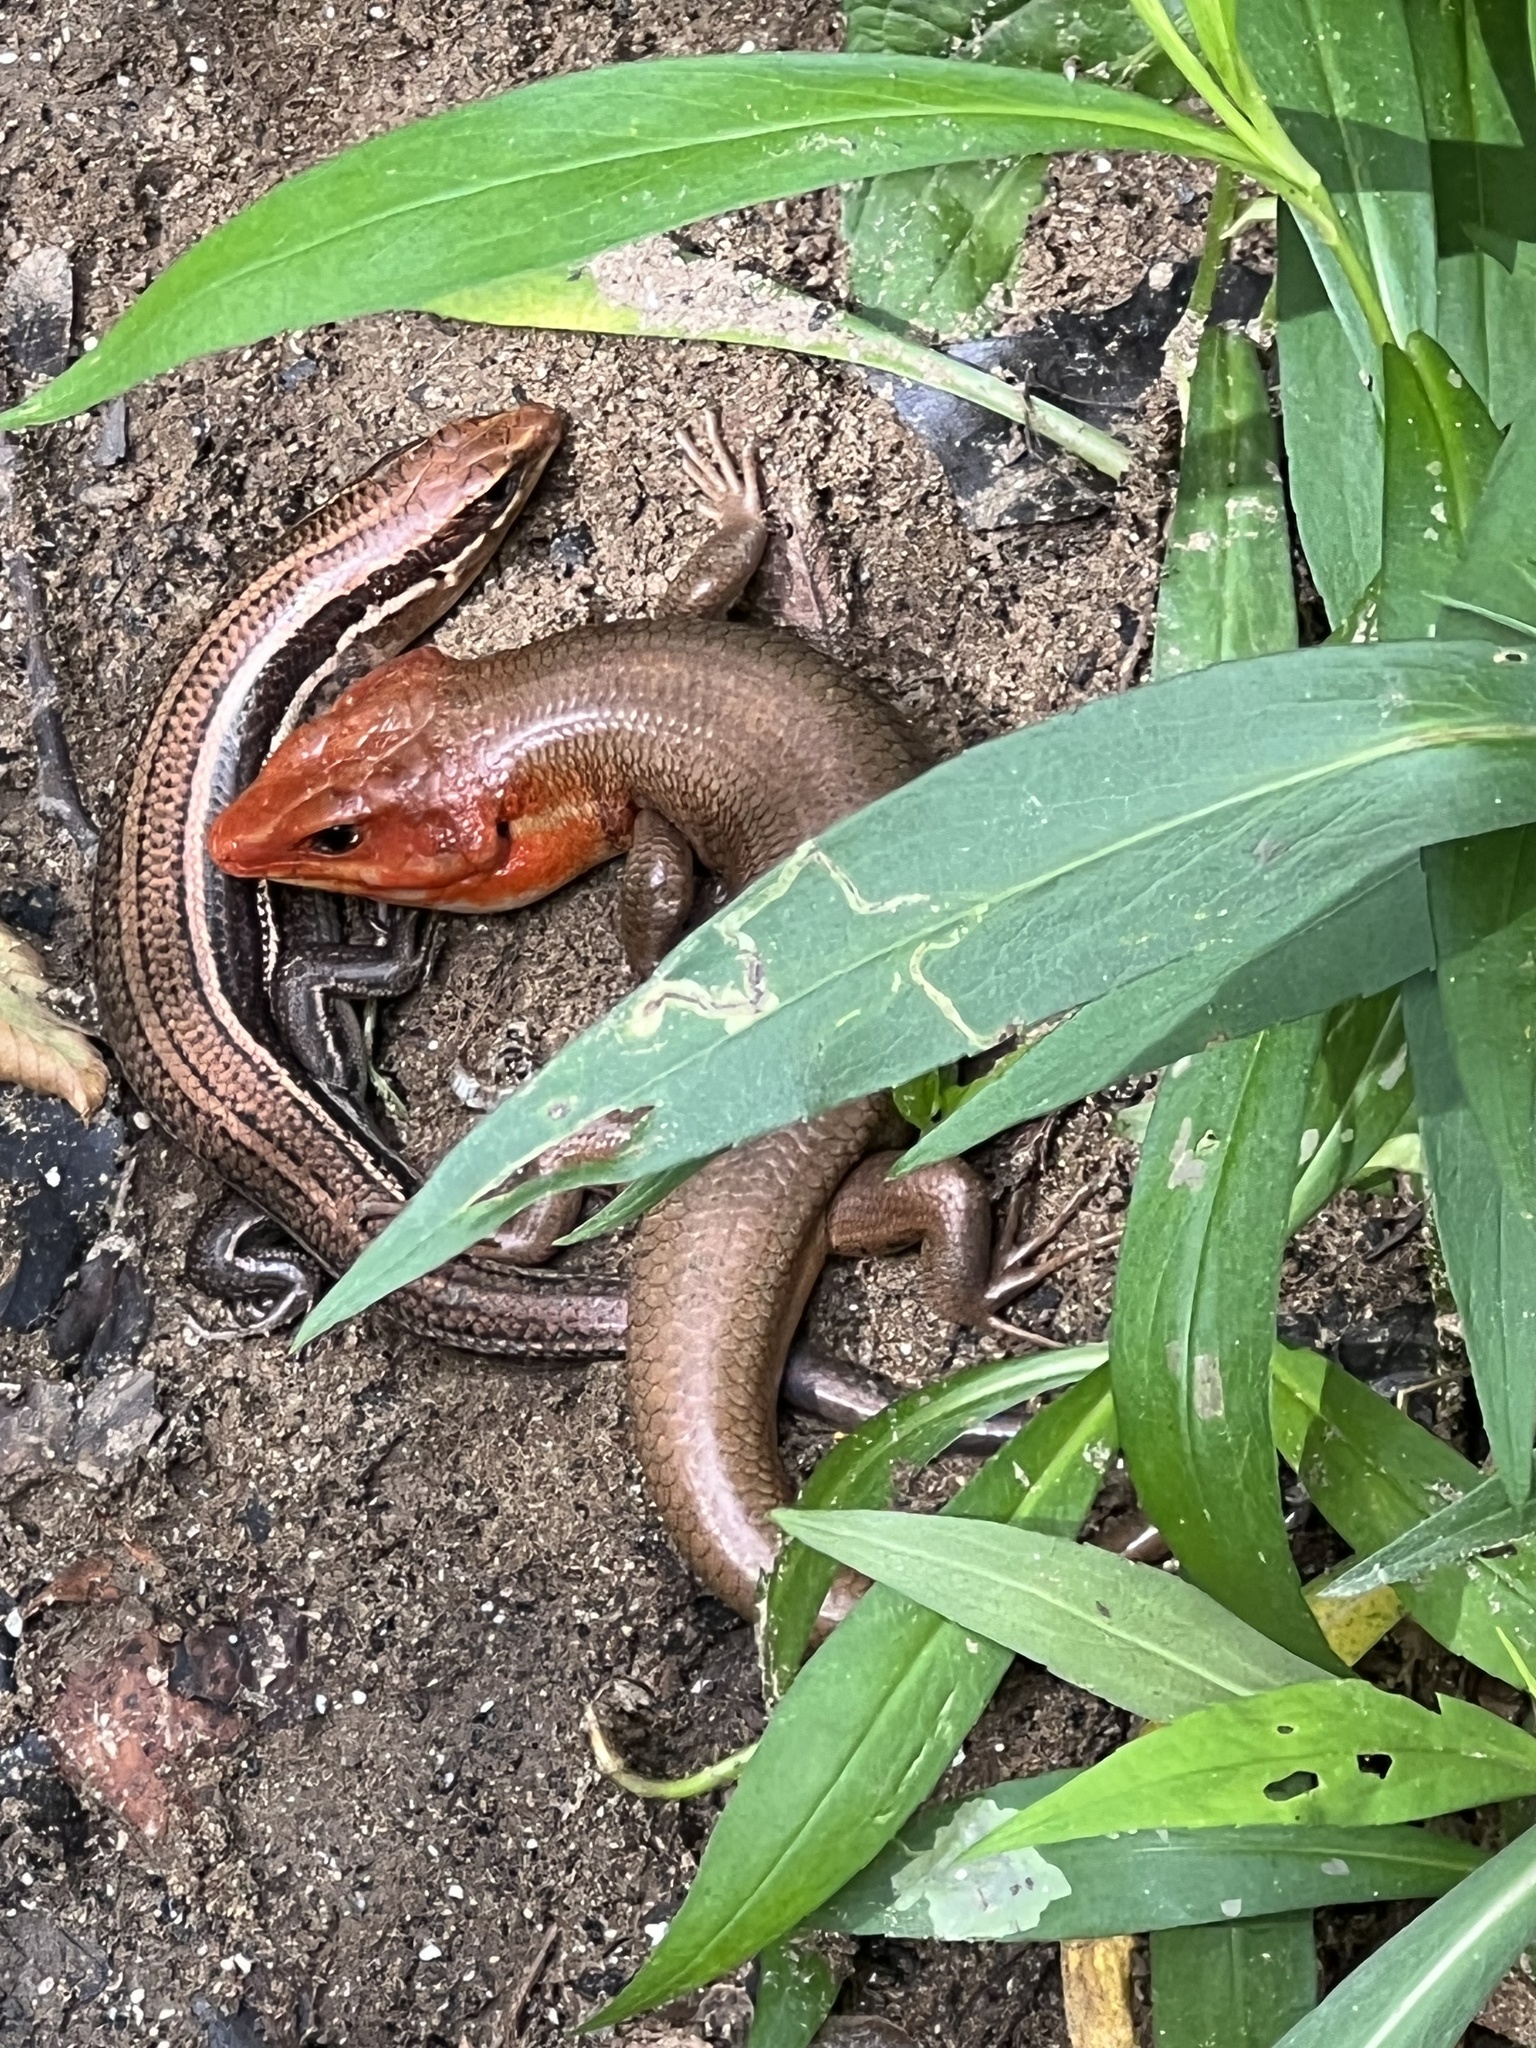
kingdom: Animalia
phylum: Chordata
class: Squamata
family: Scincidae
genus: Plestiodon
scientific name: Plestiodon laticeps
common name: Broadhead skink
